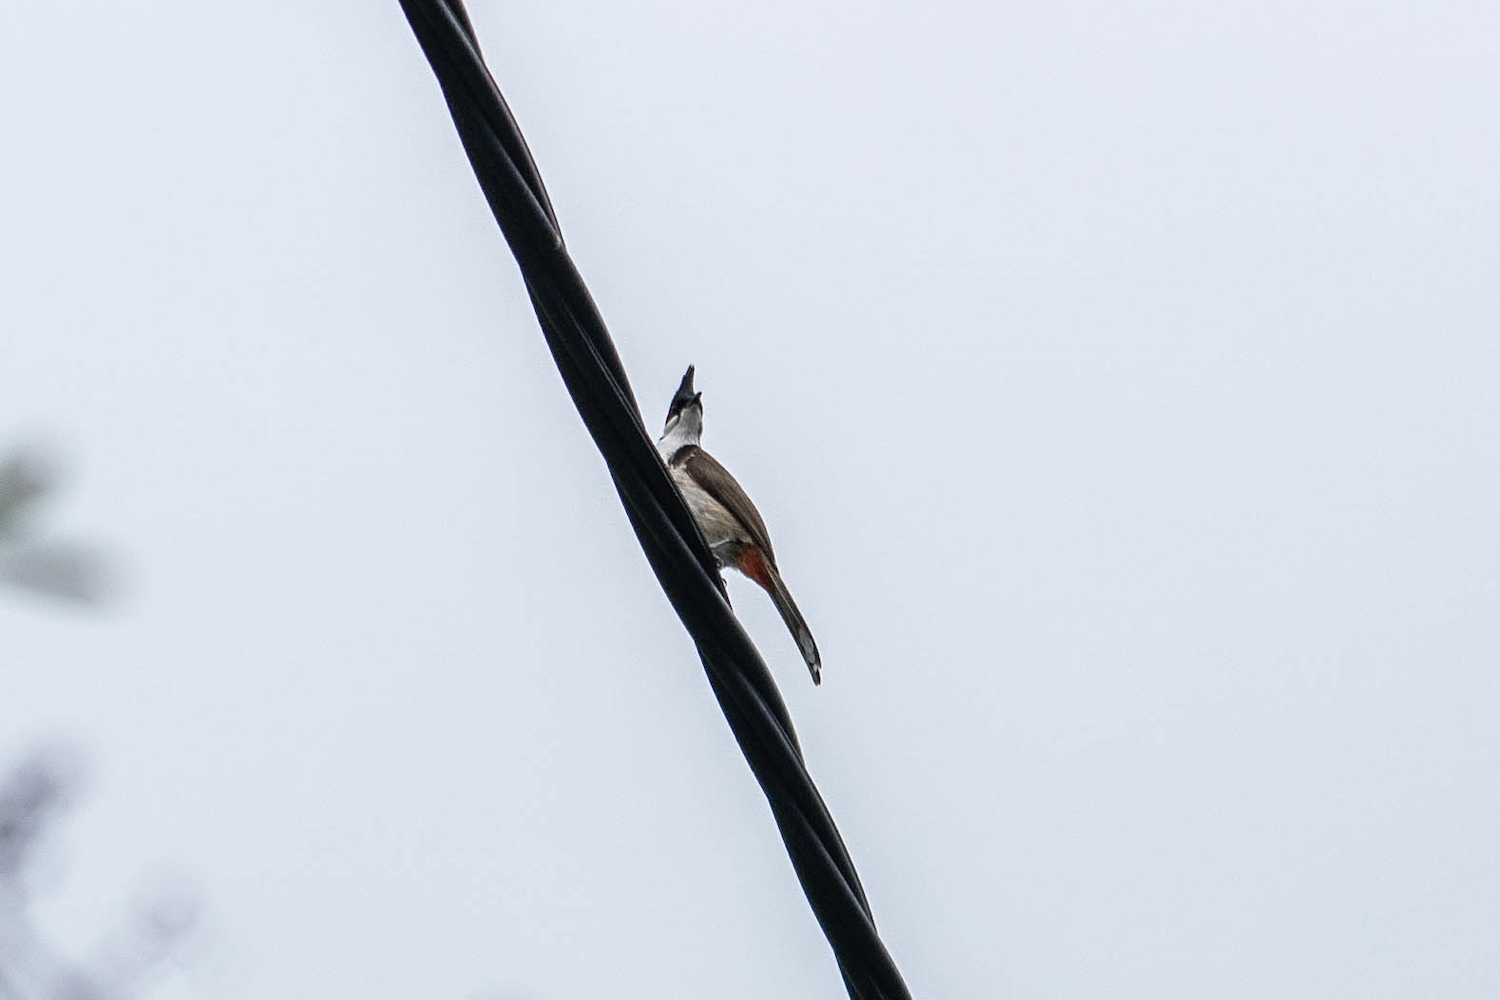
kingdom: Animalia
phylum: Chordata
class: Aves
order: Passeriformes
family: Pycnonotidae
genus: Pycnonotus
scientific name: Pycnonotus jocosus
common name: Red-whiskered bulbul
